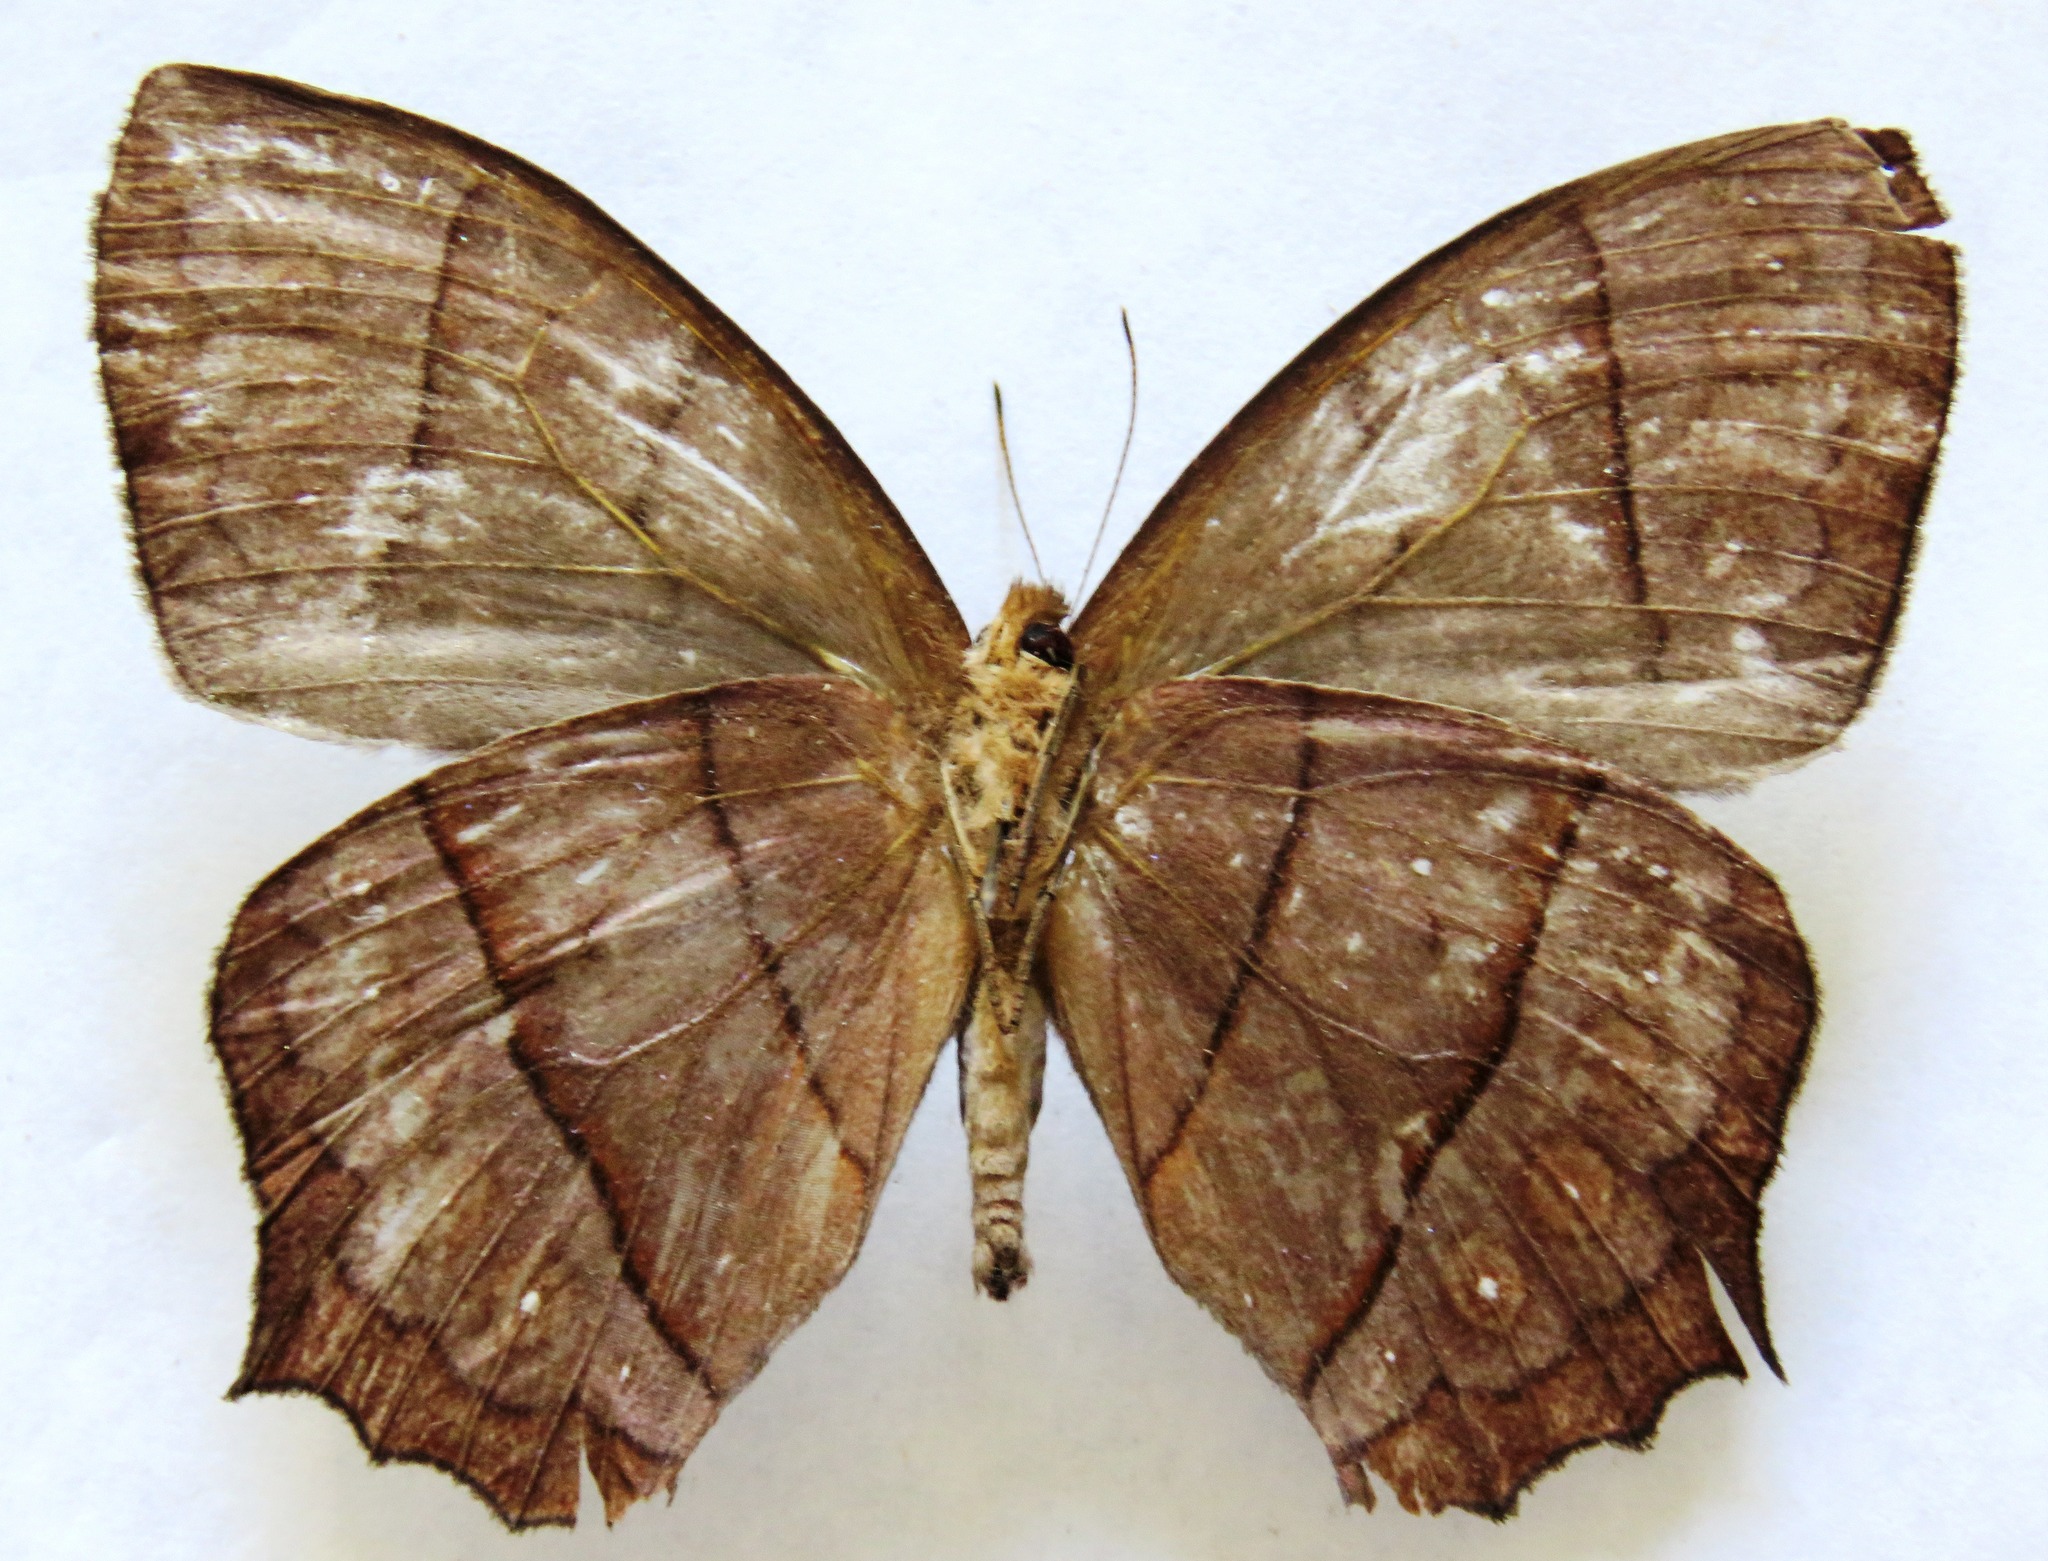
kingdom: Animalia
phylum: Arthropoda
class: Insecta
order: Lepidoptera
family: Nymphalidae
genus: Taygetis
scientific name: Taygetis virgilia
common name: Stub-tailed satyr
